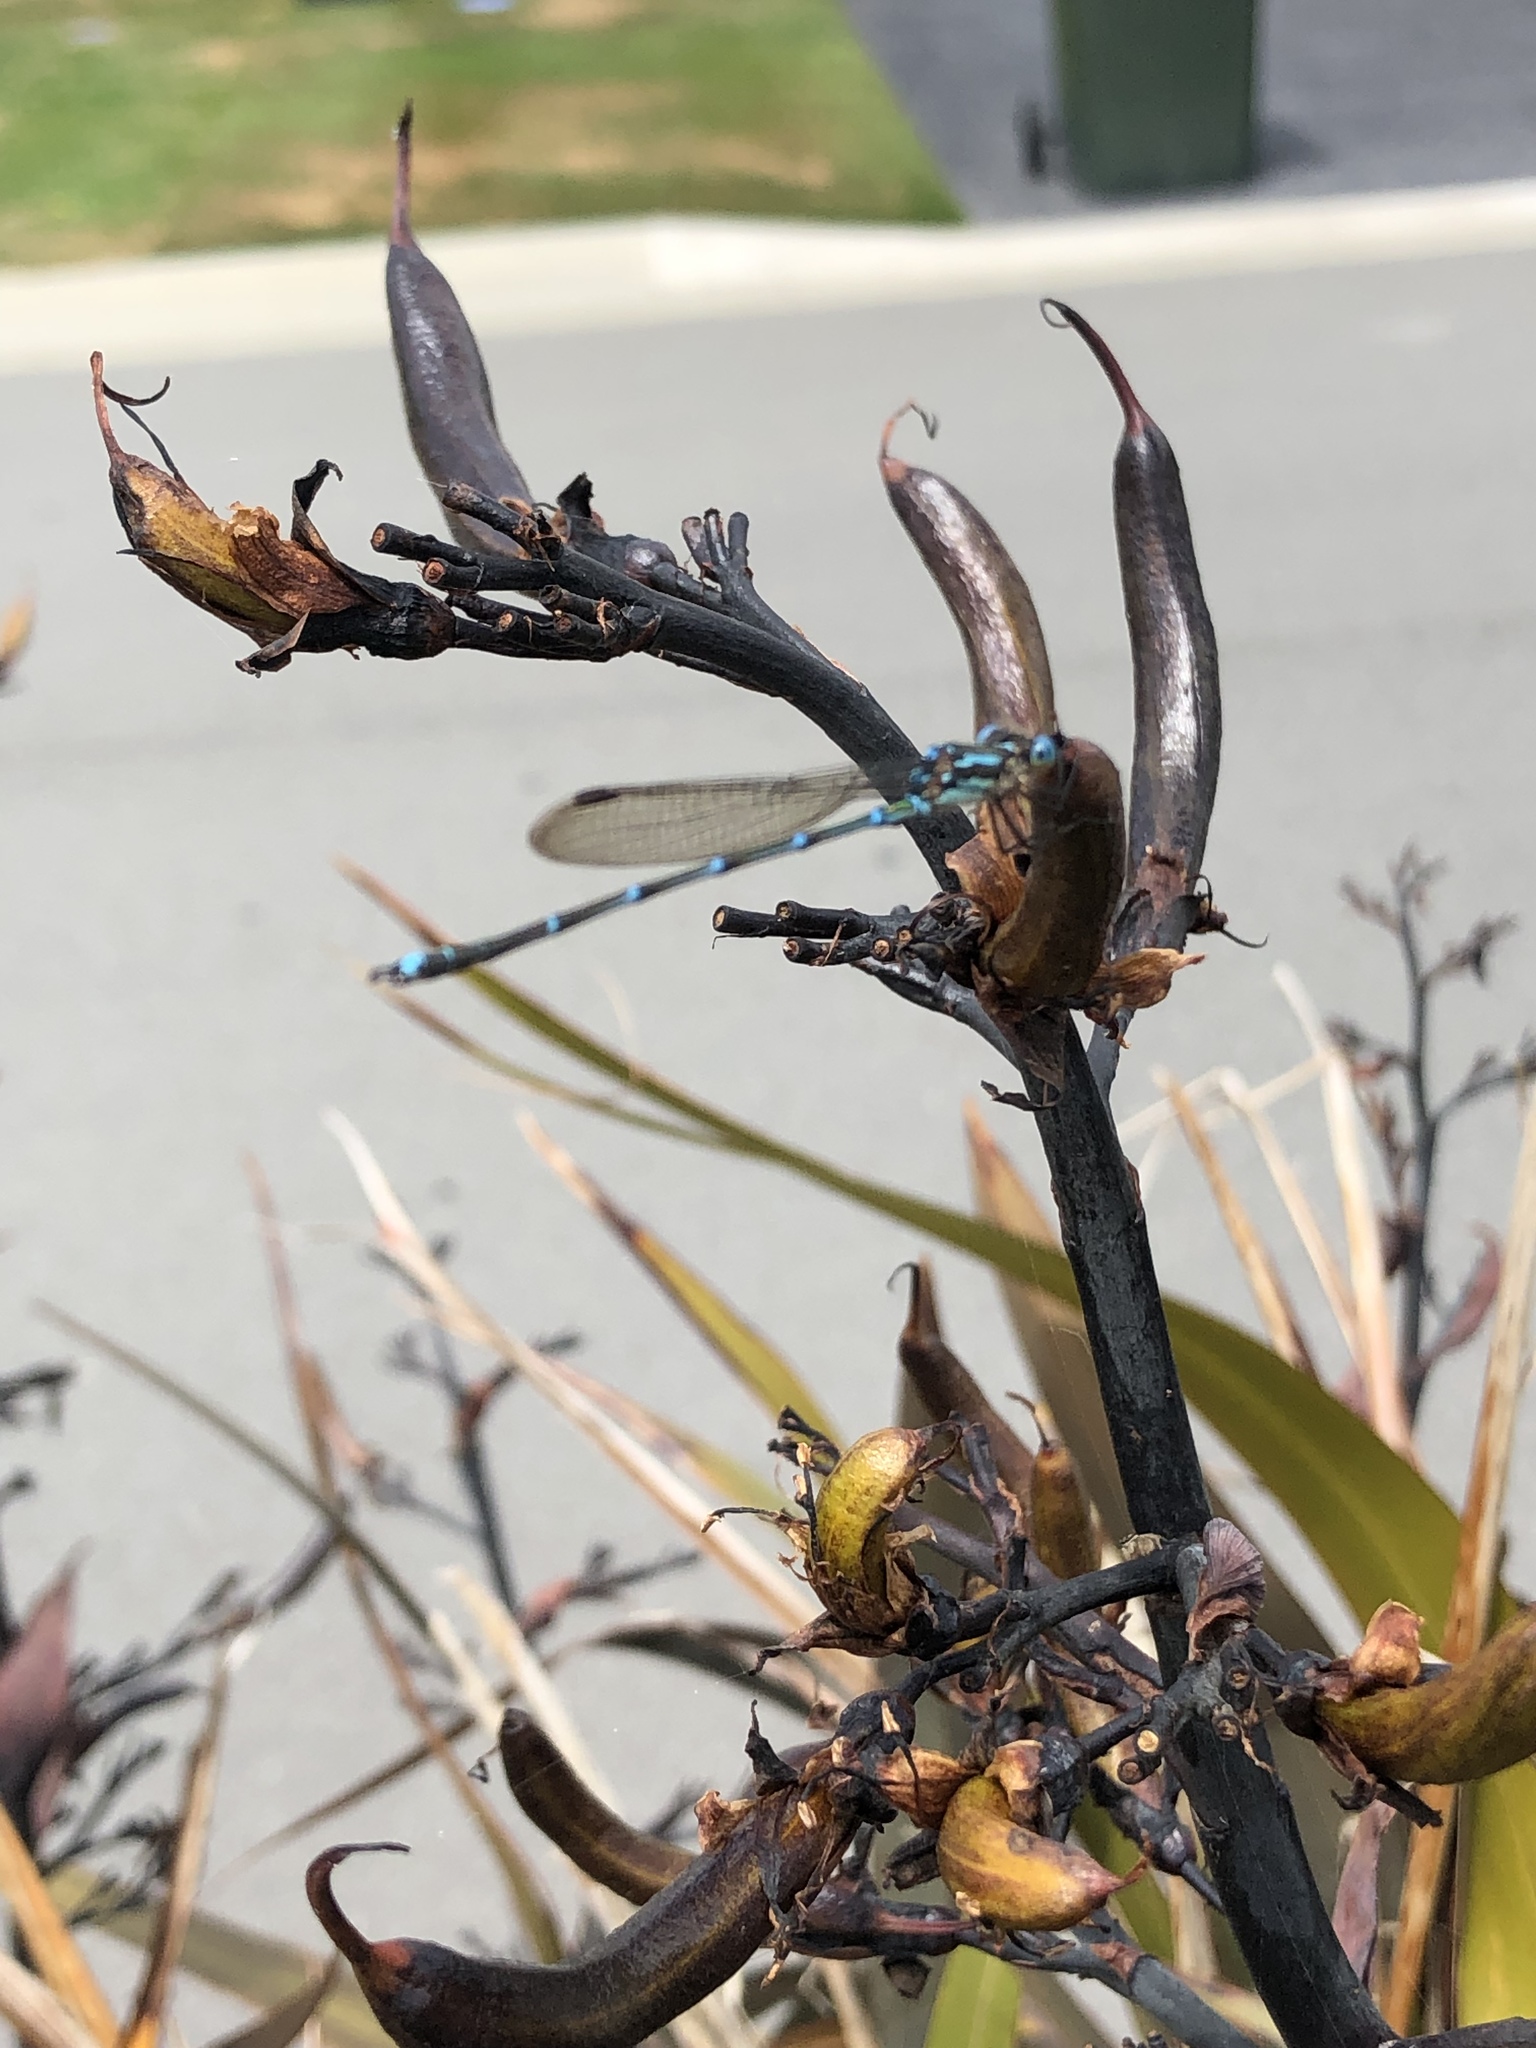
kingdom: Animalia
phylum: Arthropoda
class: Insecta
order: Odonata
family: Lestidae
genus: Austrolestes
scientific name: Austrolestes colensonis
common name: Blue damselfly
